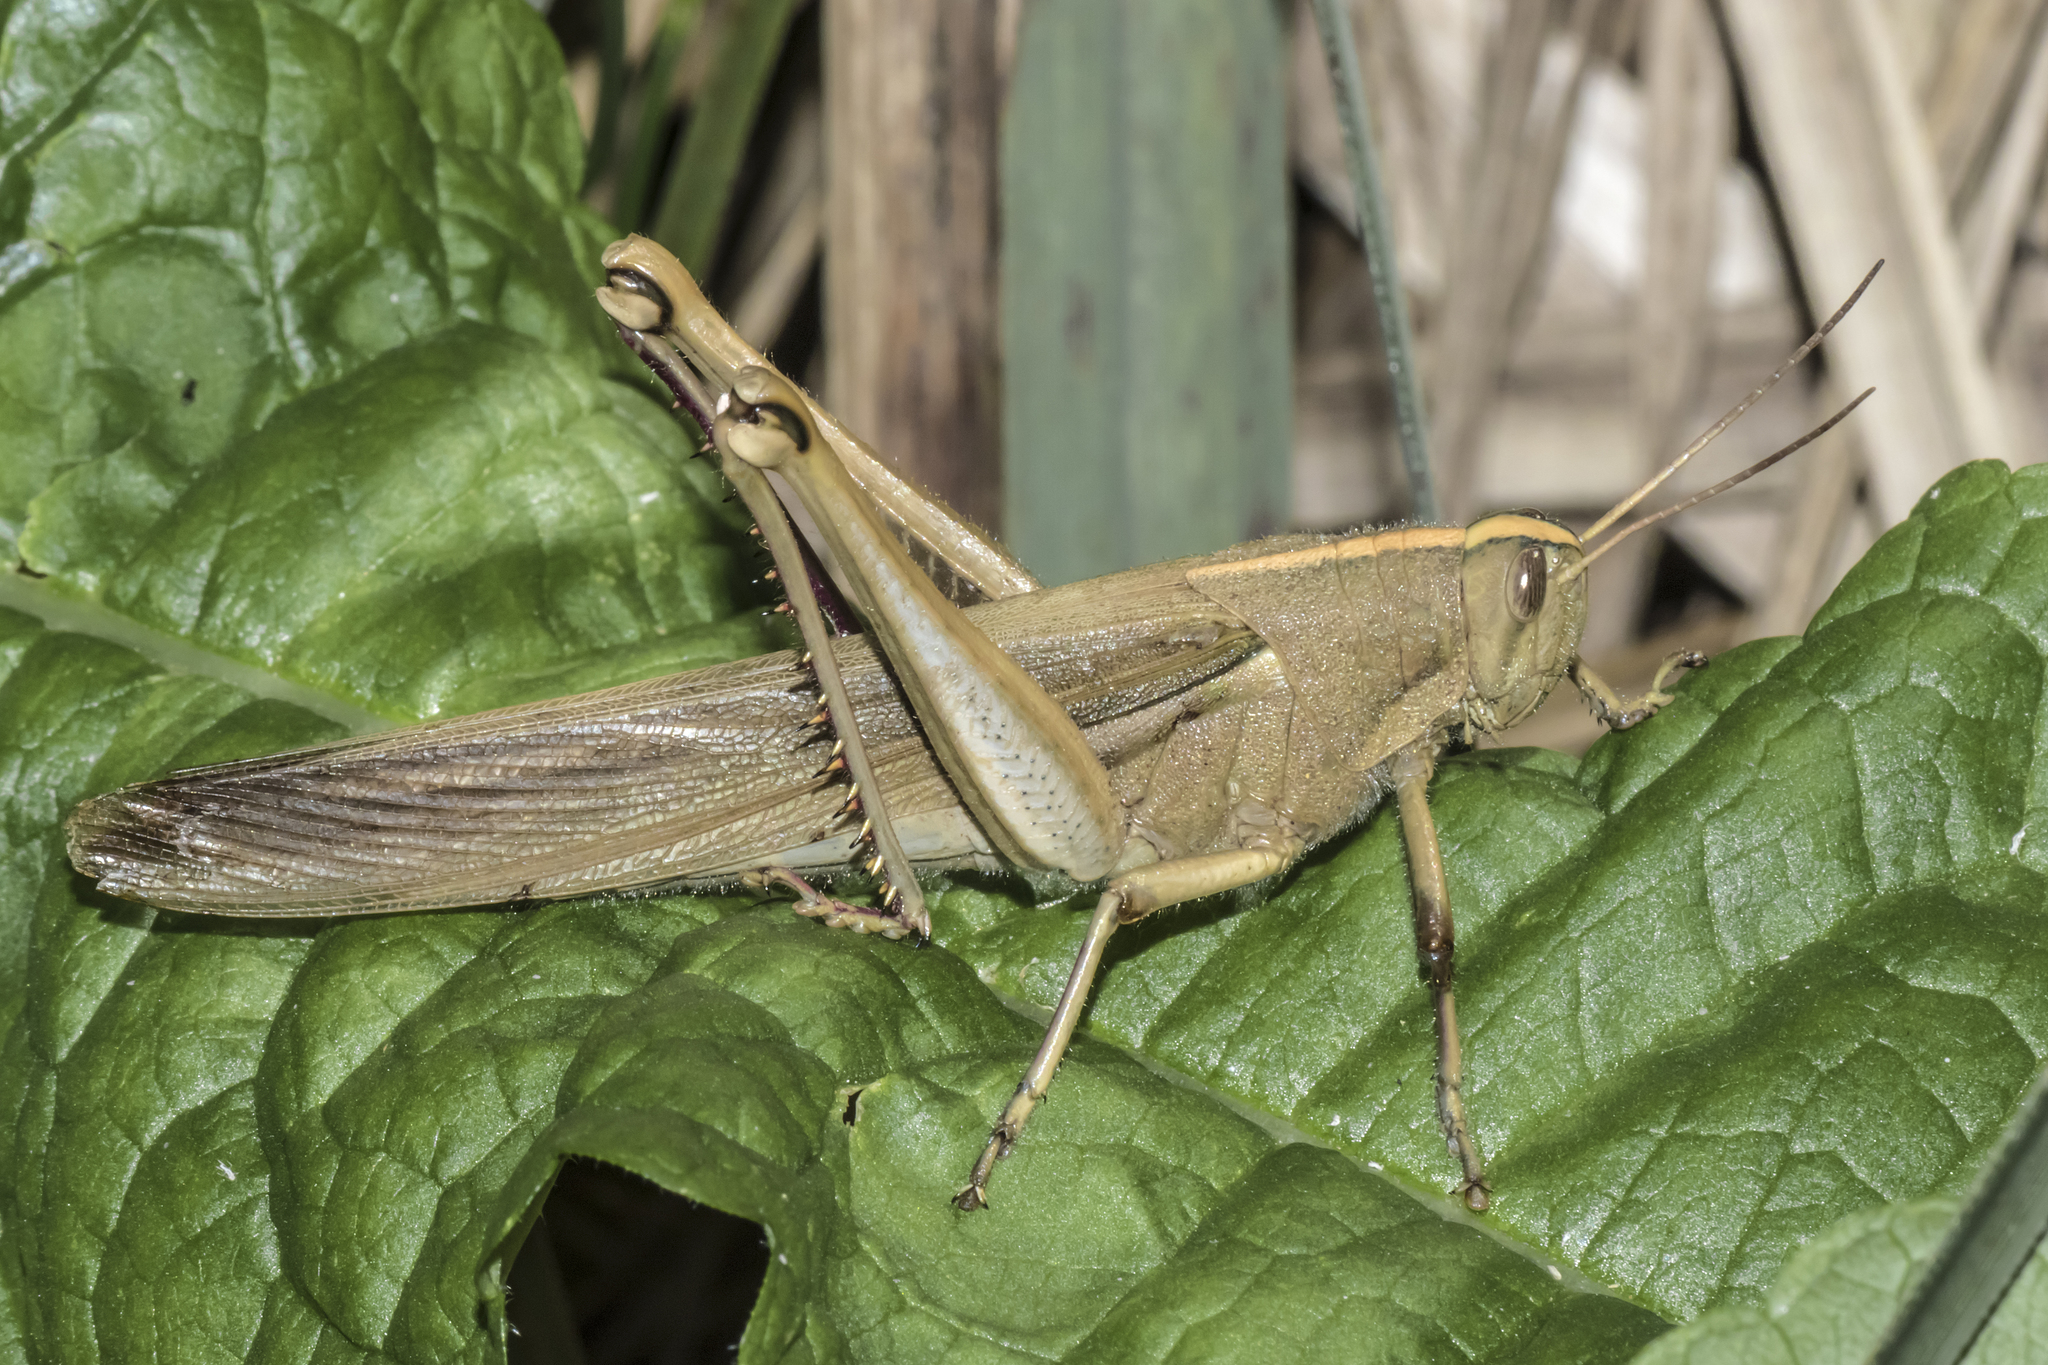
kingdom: Animalia
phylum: Arthropoda
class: Insecta
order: Orthoptera
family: Acrididae
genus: Schistocerca
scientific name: Schistocerca flavofasciata
